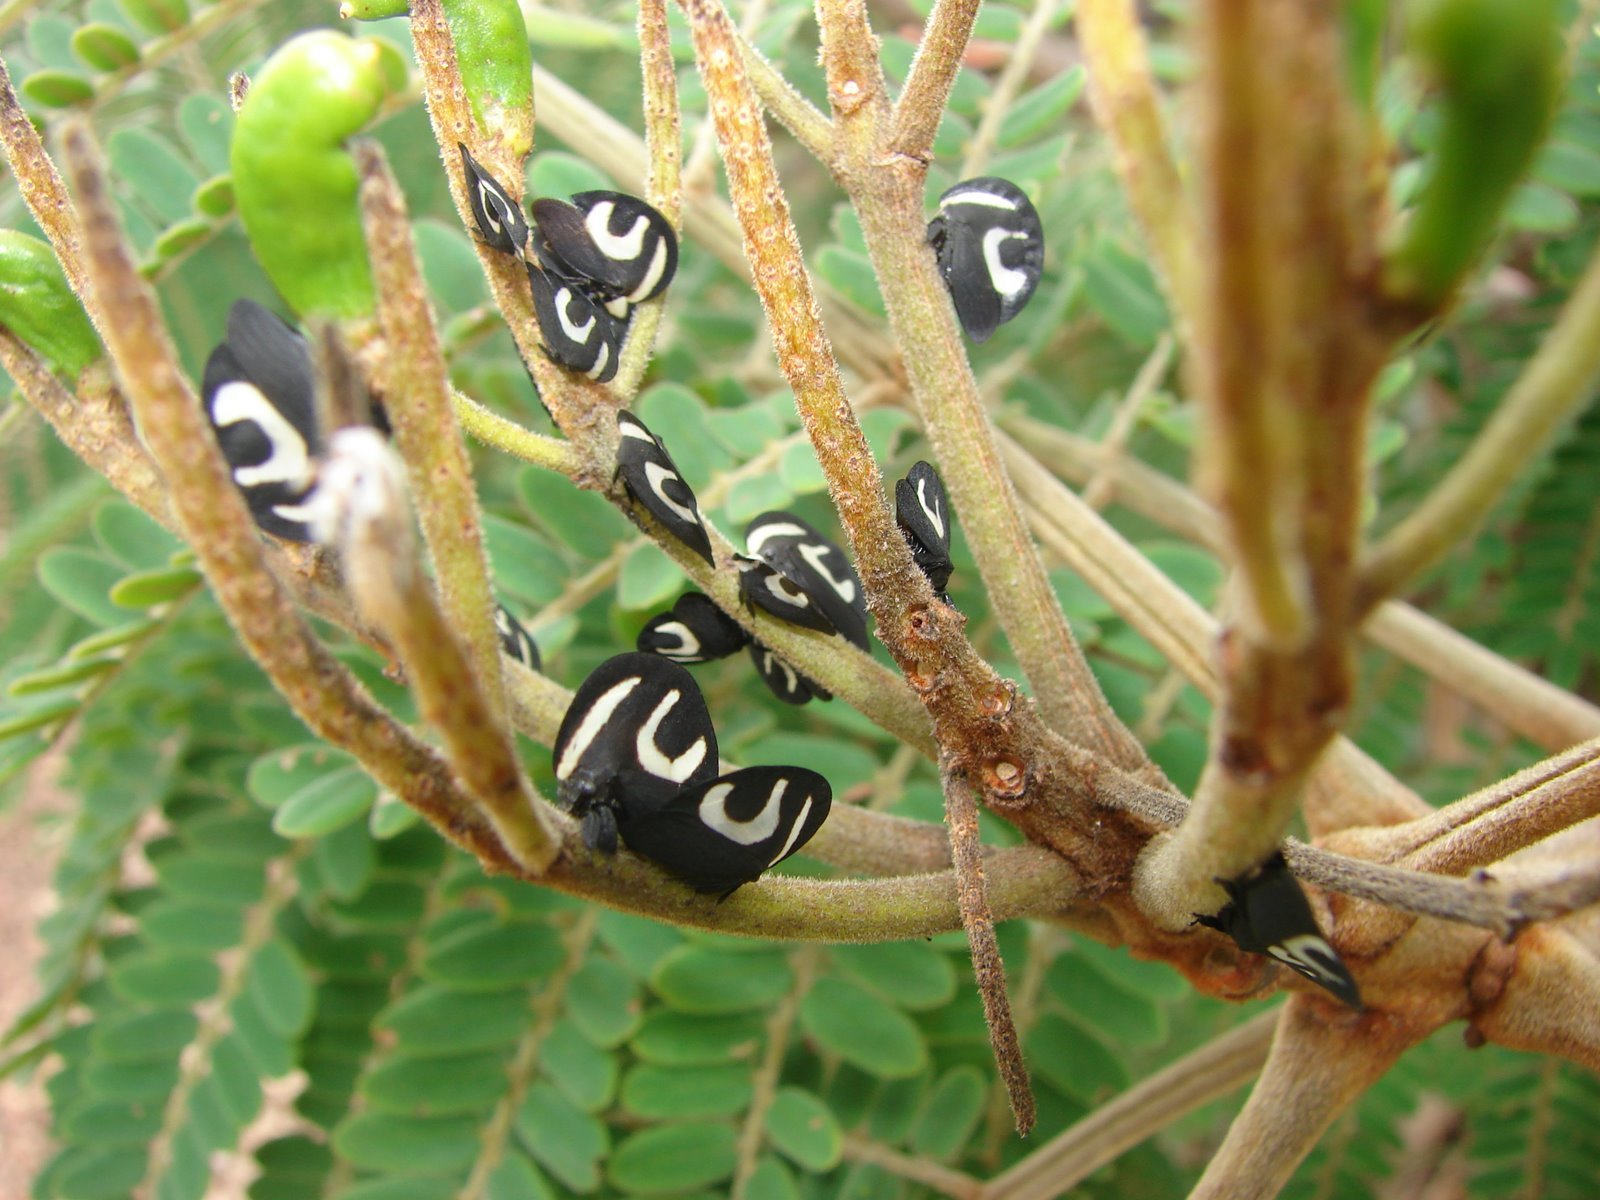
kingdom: Animalia
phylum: Arthropoda
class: Insecta
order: Hemiptera
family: Membracidae
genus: Membracis
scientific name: Membracis foliatafasciata
